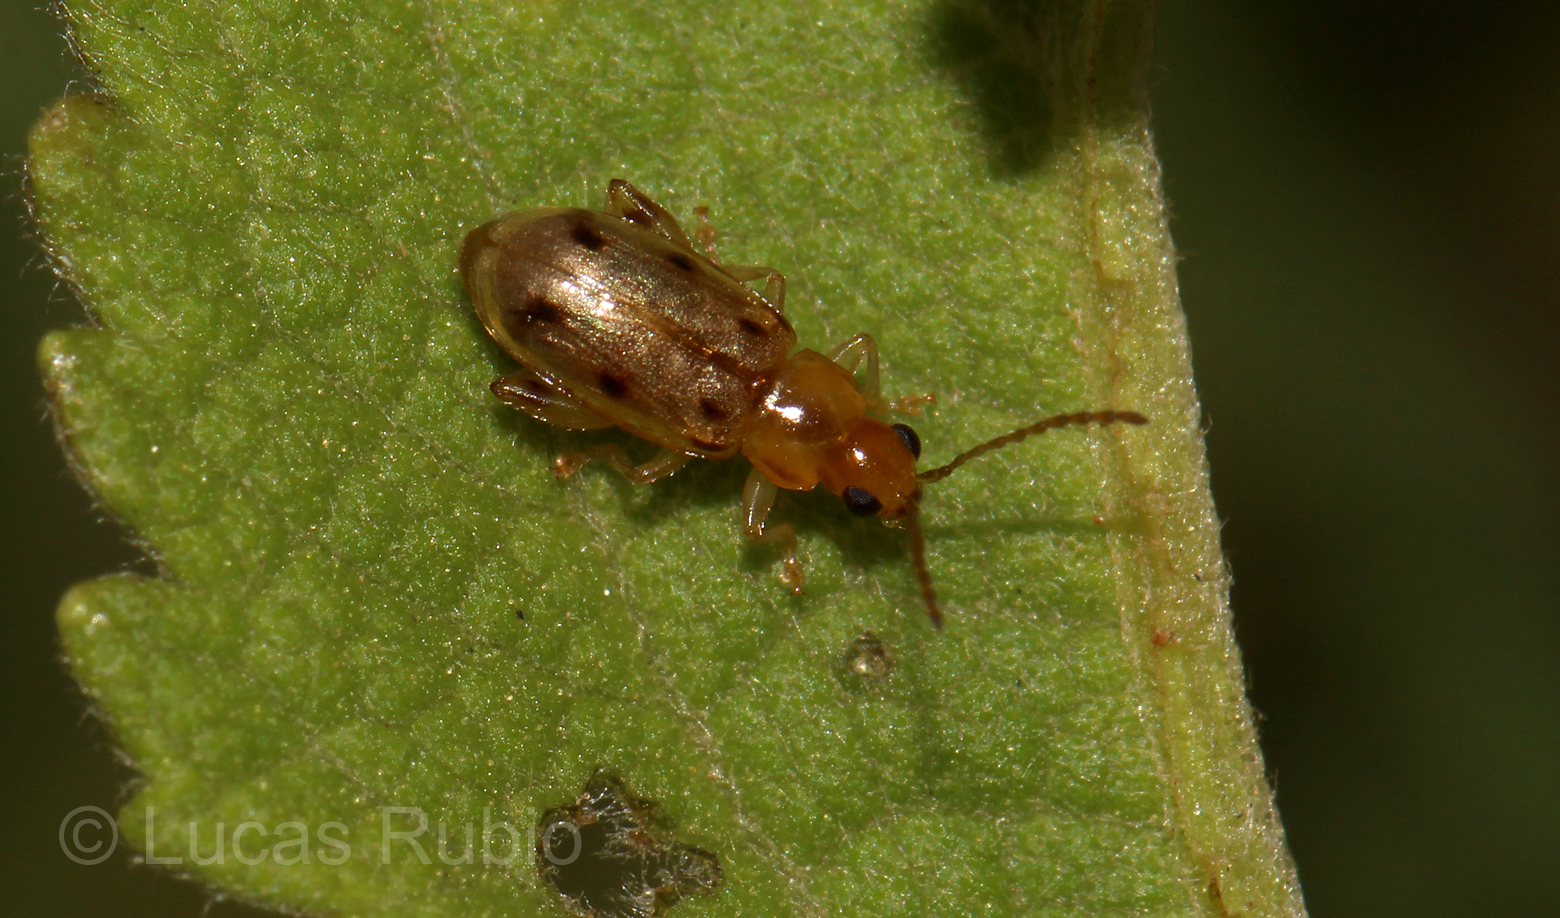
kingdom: Animalia
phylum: Arthropoda
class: Insecta
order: Coleoptera
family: Chrysomelidae
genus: Systena
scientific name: Systena
